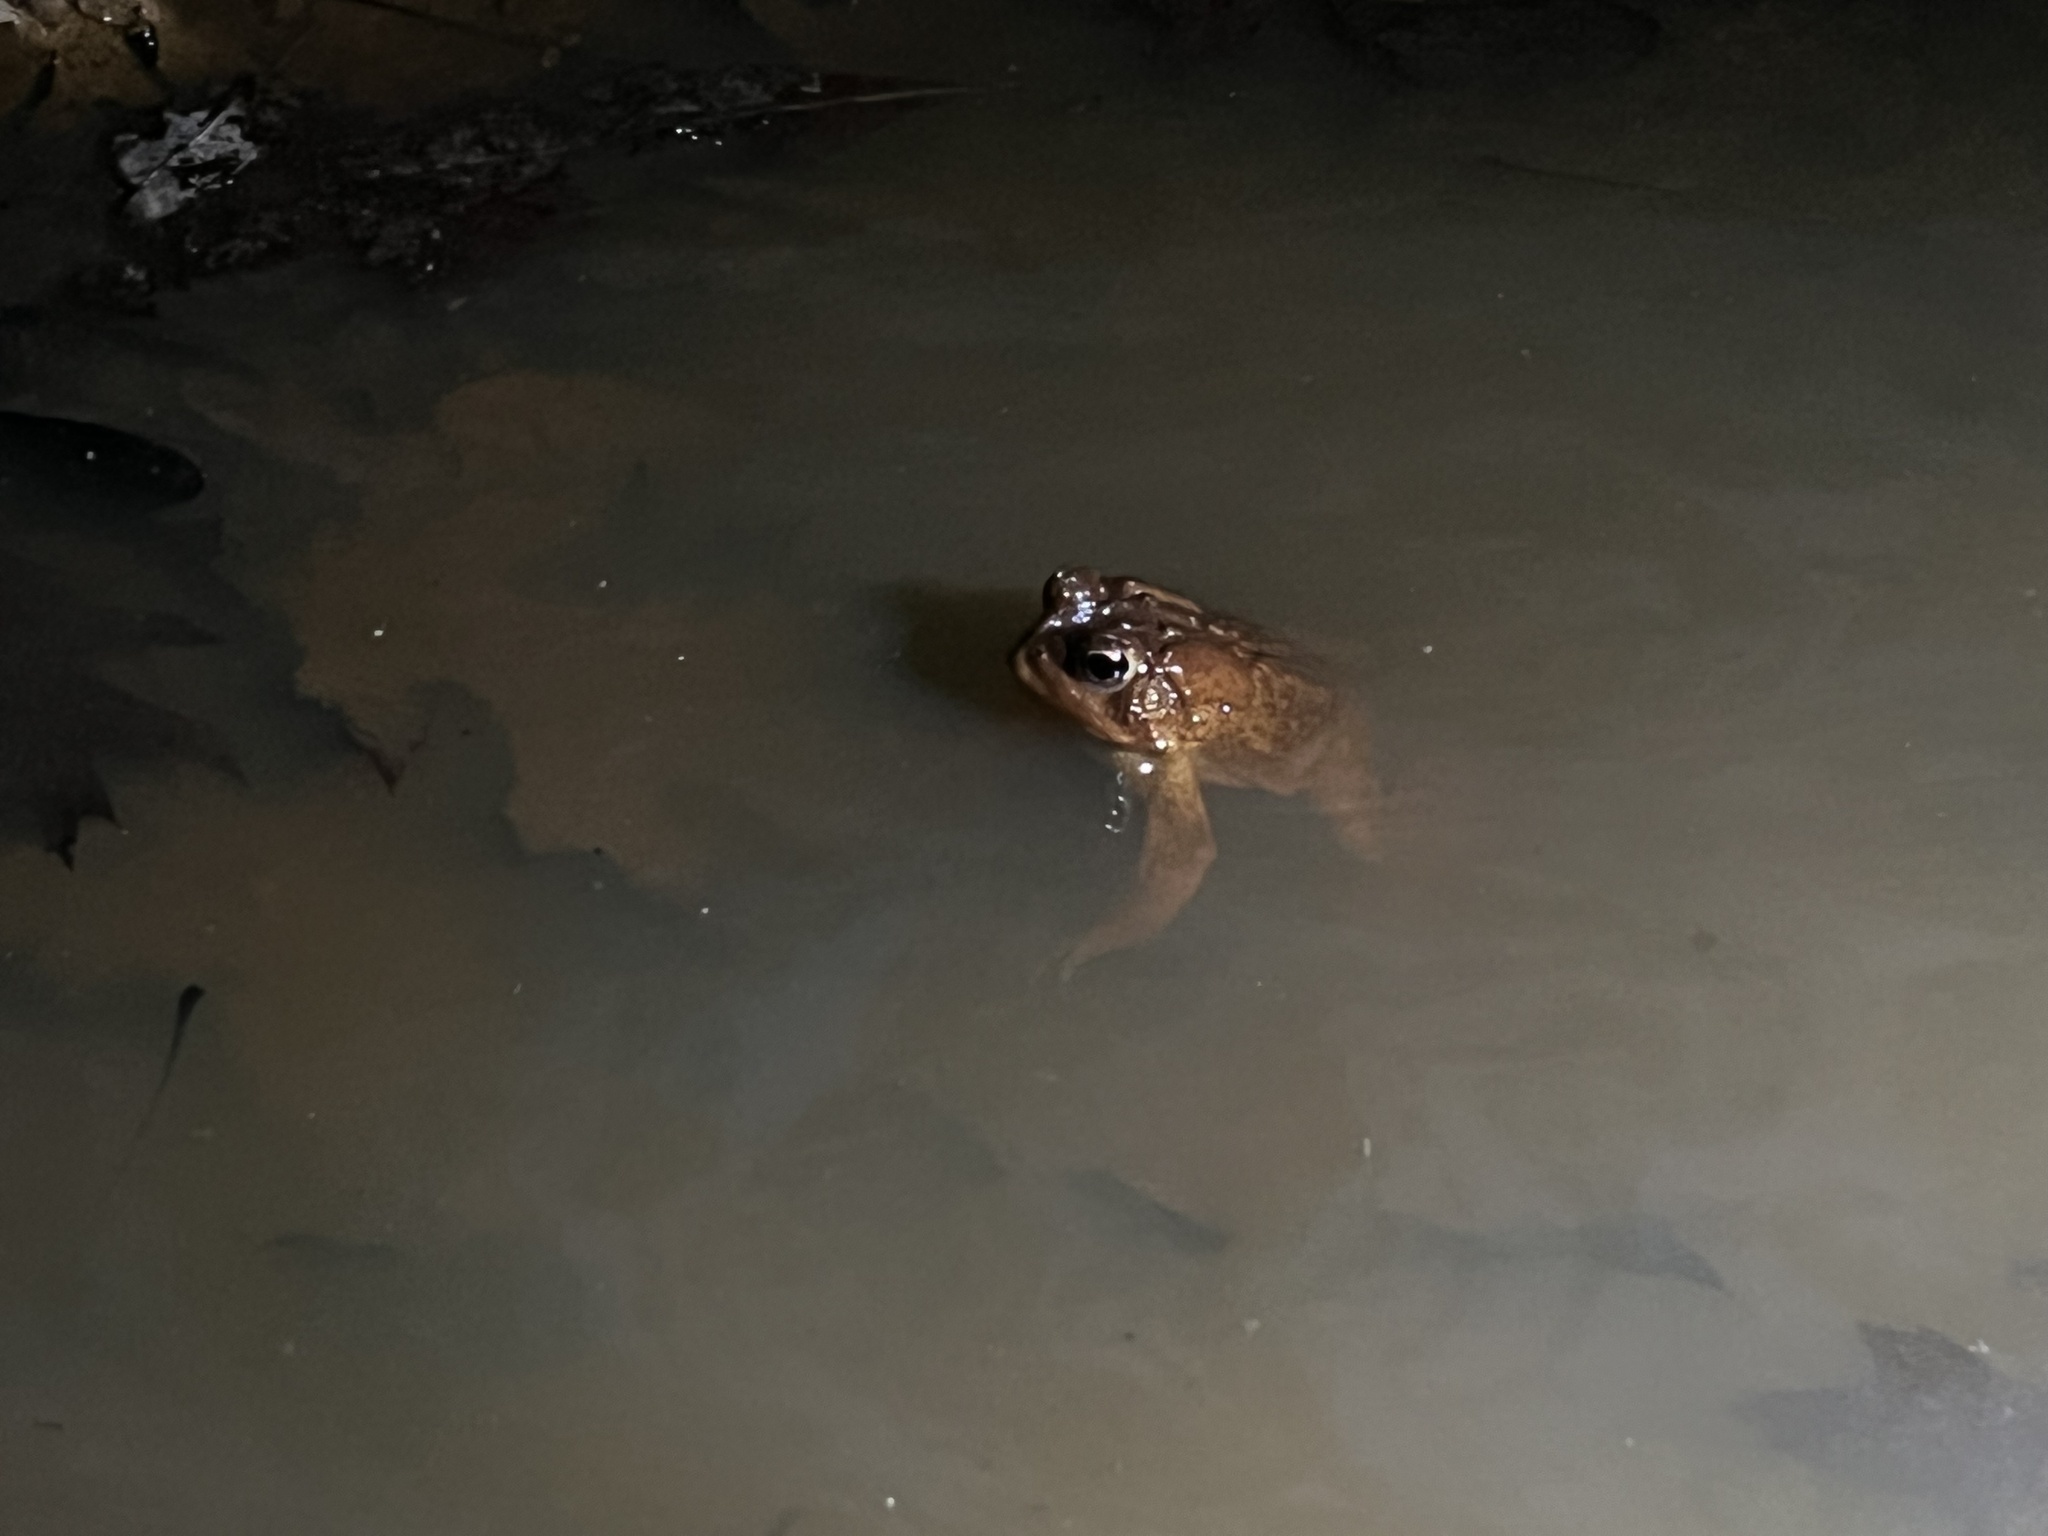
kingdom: Animalia
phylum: Chordata
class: Amphibia
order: Anura
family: Bufonidae
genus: Anaxyrus
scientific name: Anaxyrus americanus
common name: American toad
